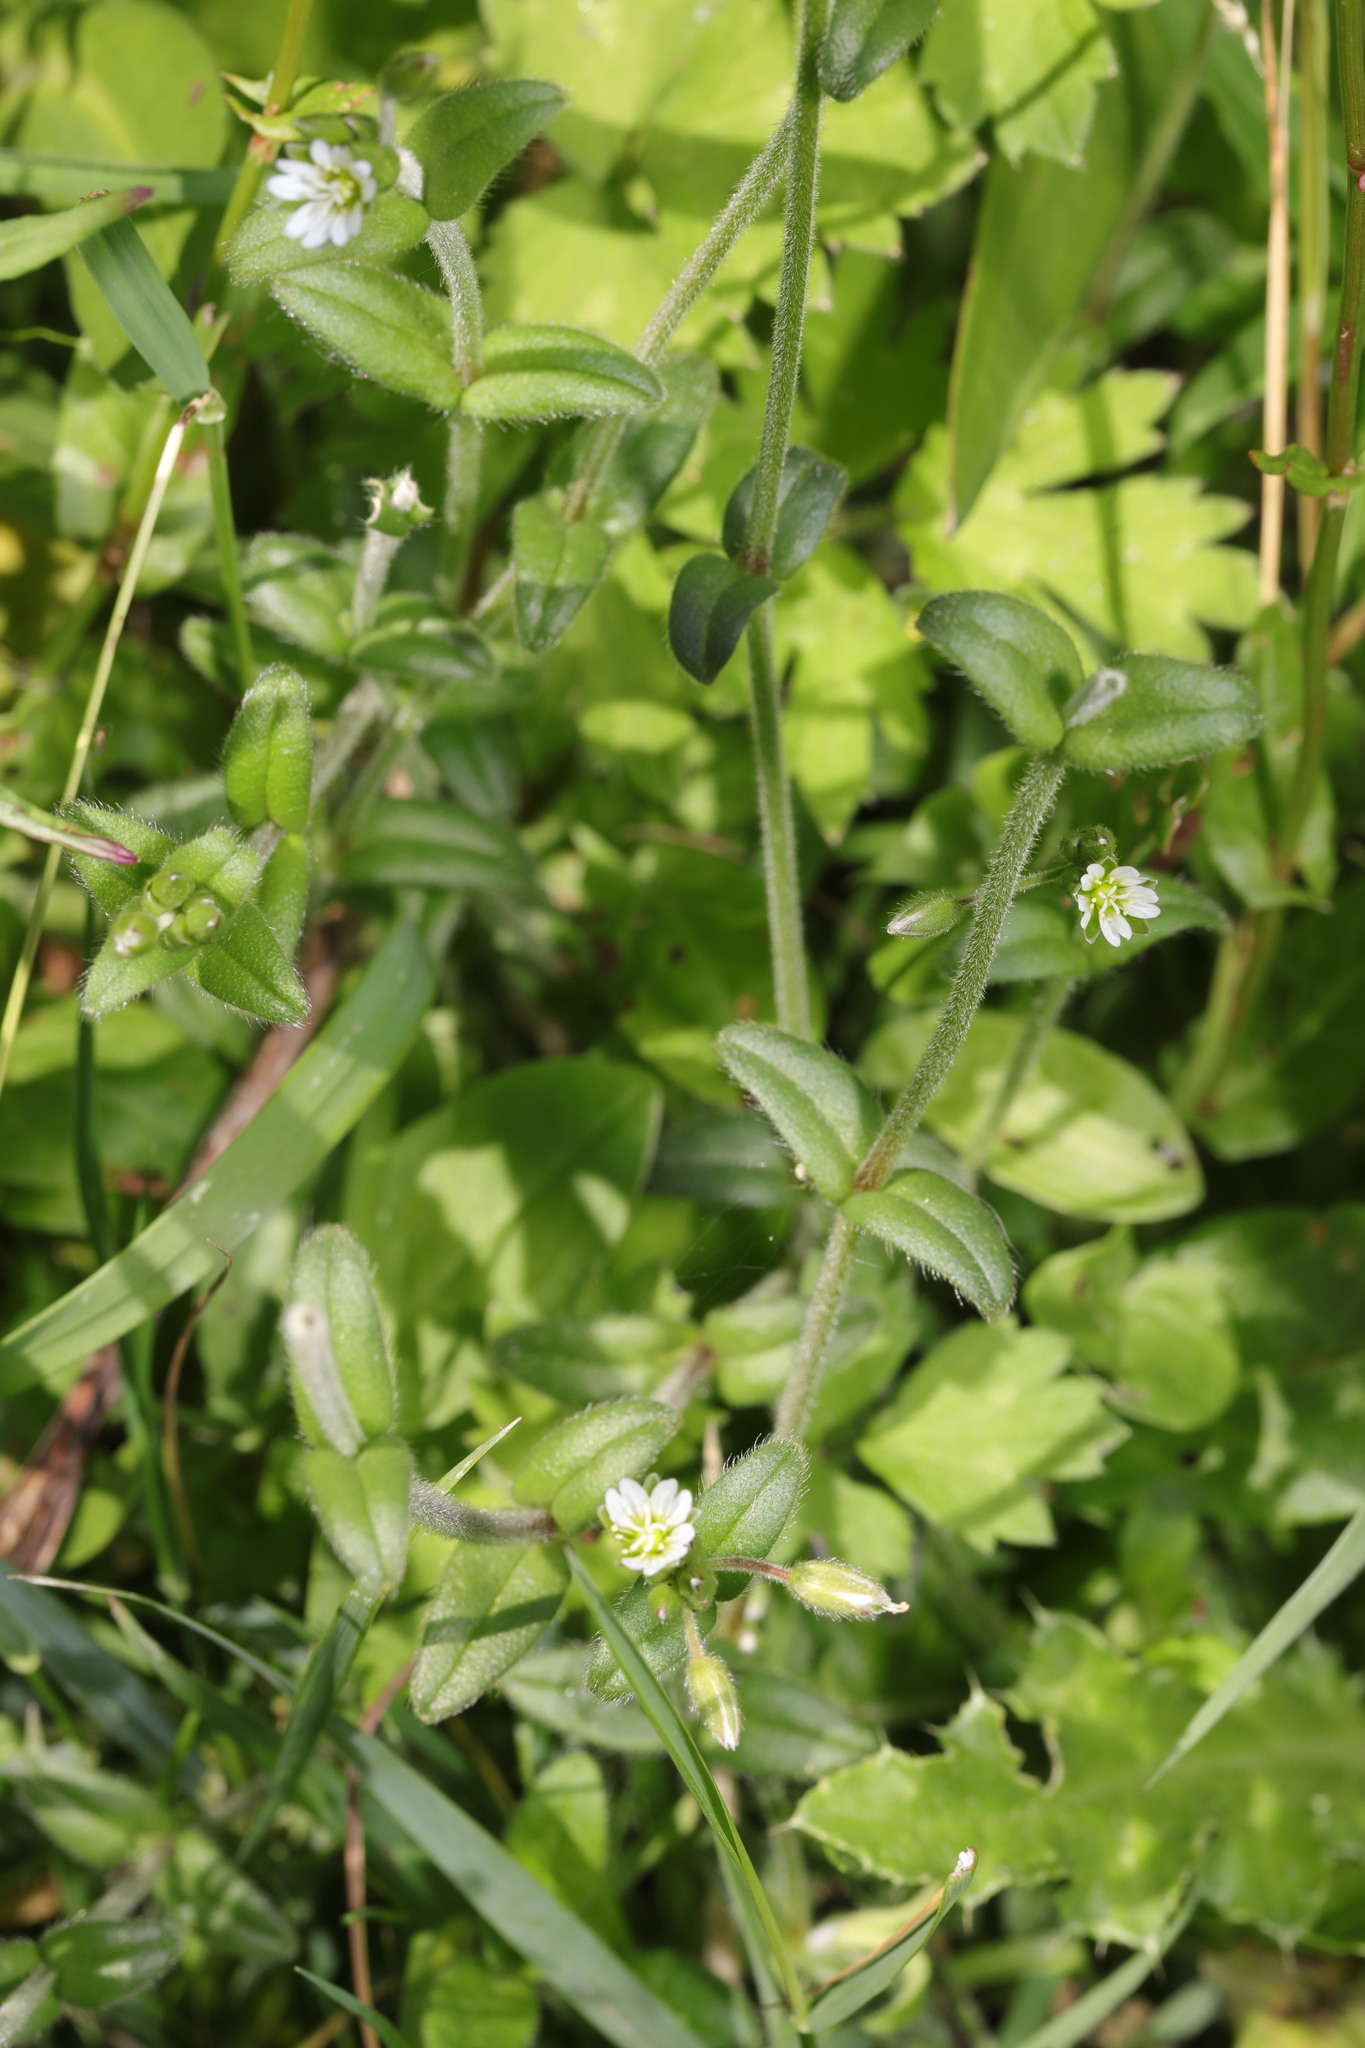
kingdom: Plantae
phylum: Tracheophyta
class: Magnoliopsida
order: Caryophyllales
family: Caryophyllaceae
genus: Cerastium
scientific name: Cerastium fontanum
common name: Common mouse-ear
